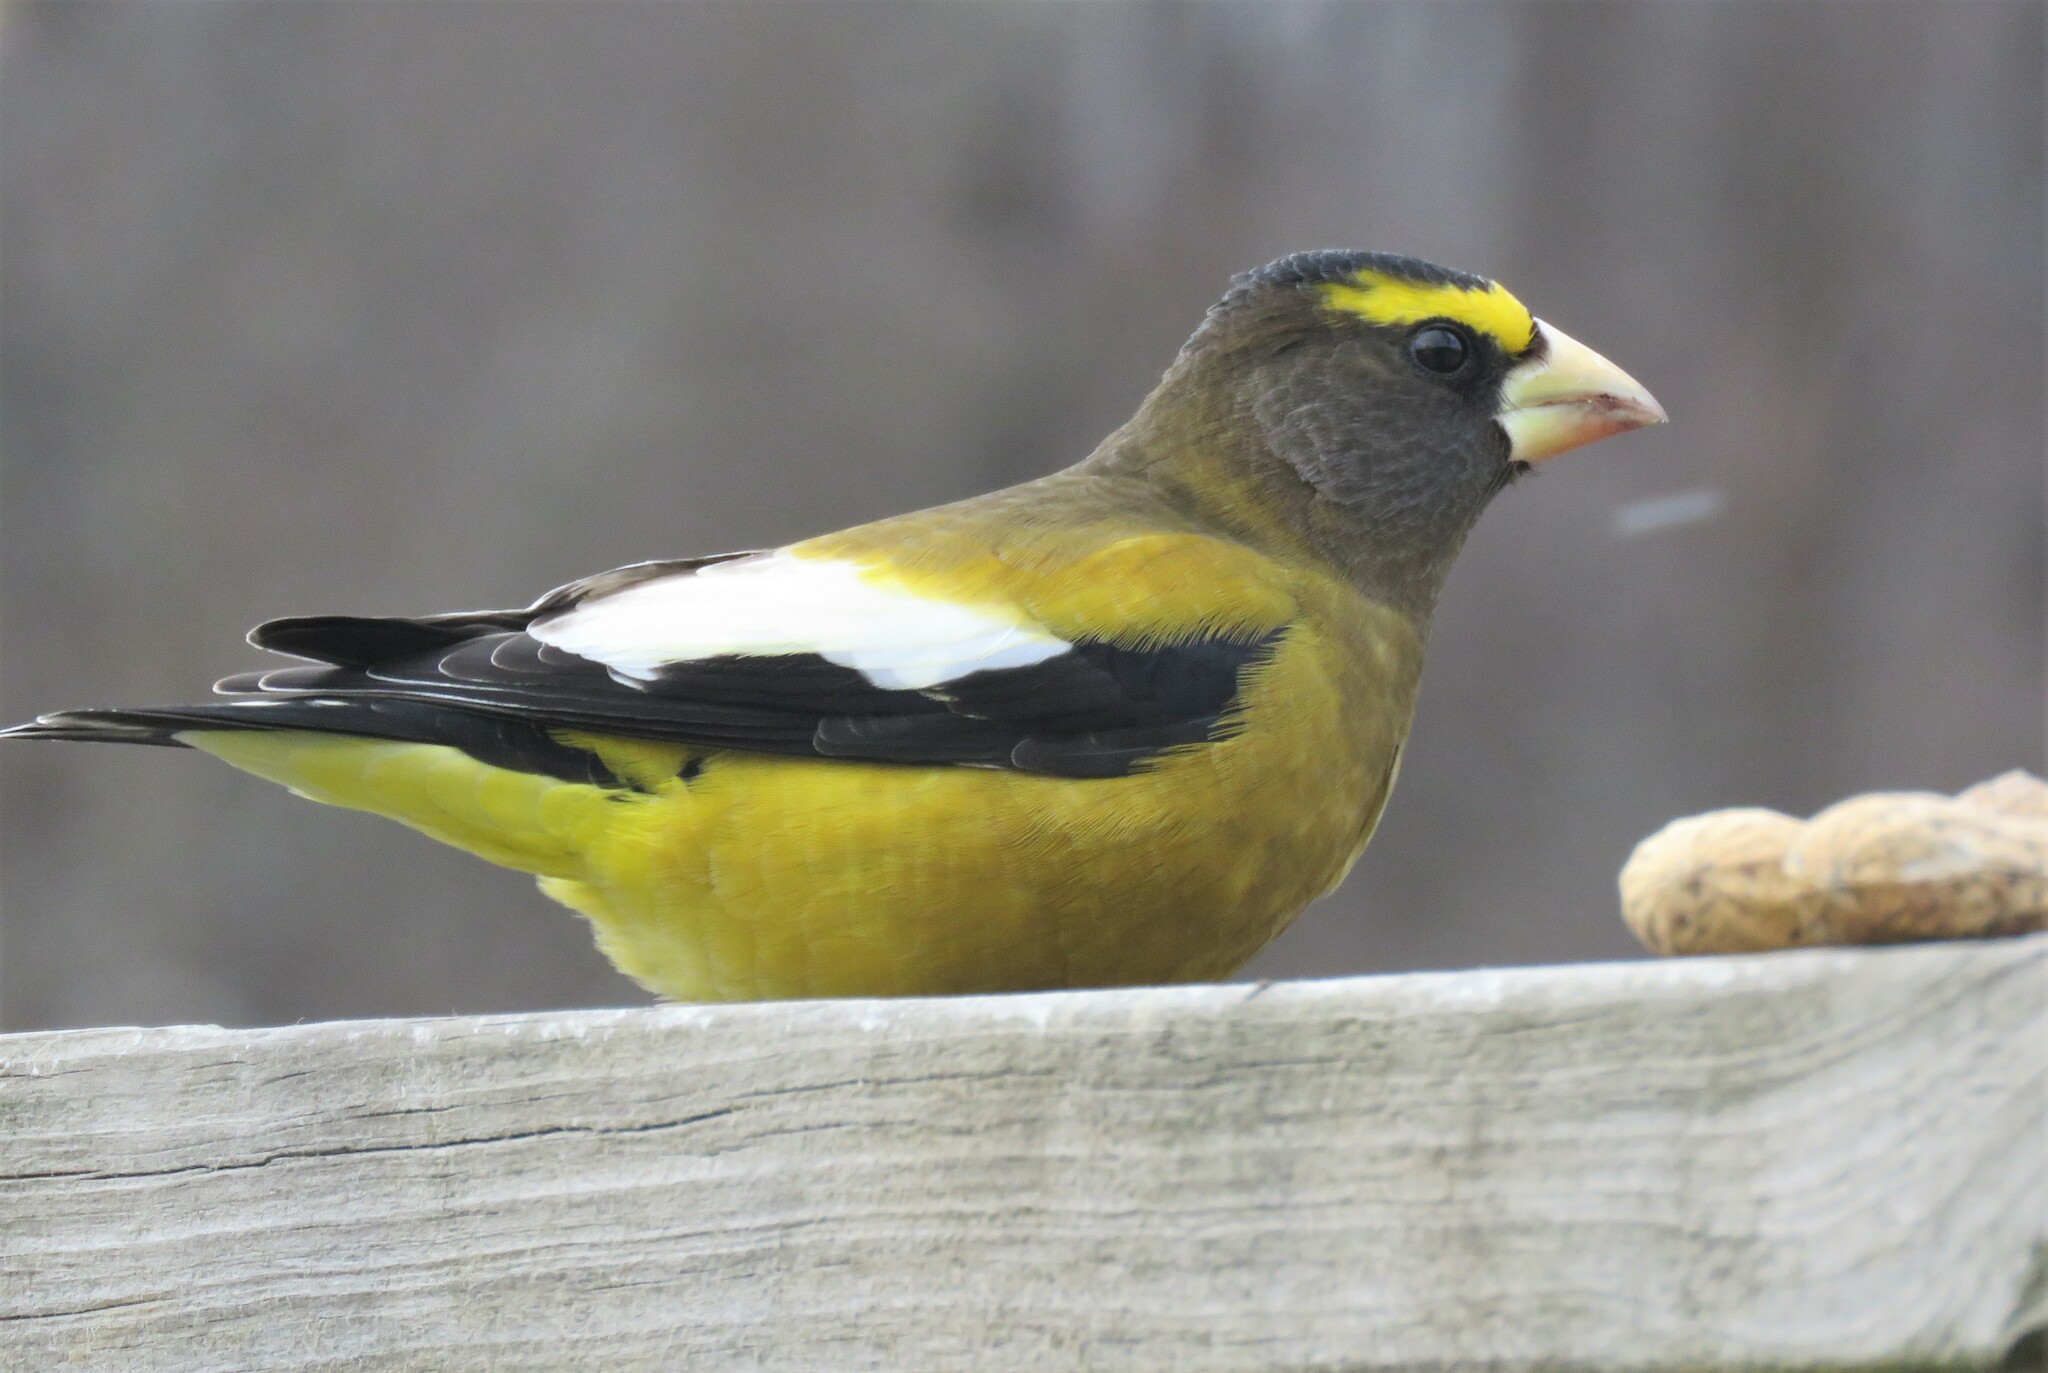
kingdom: Animalia
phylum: Chordata
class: Aves
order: Passeriformes
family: Fringillidae
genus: Hesperiphona
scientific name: Hesperiphona vespertina
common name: Evening grosbeak
